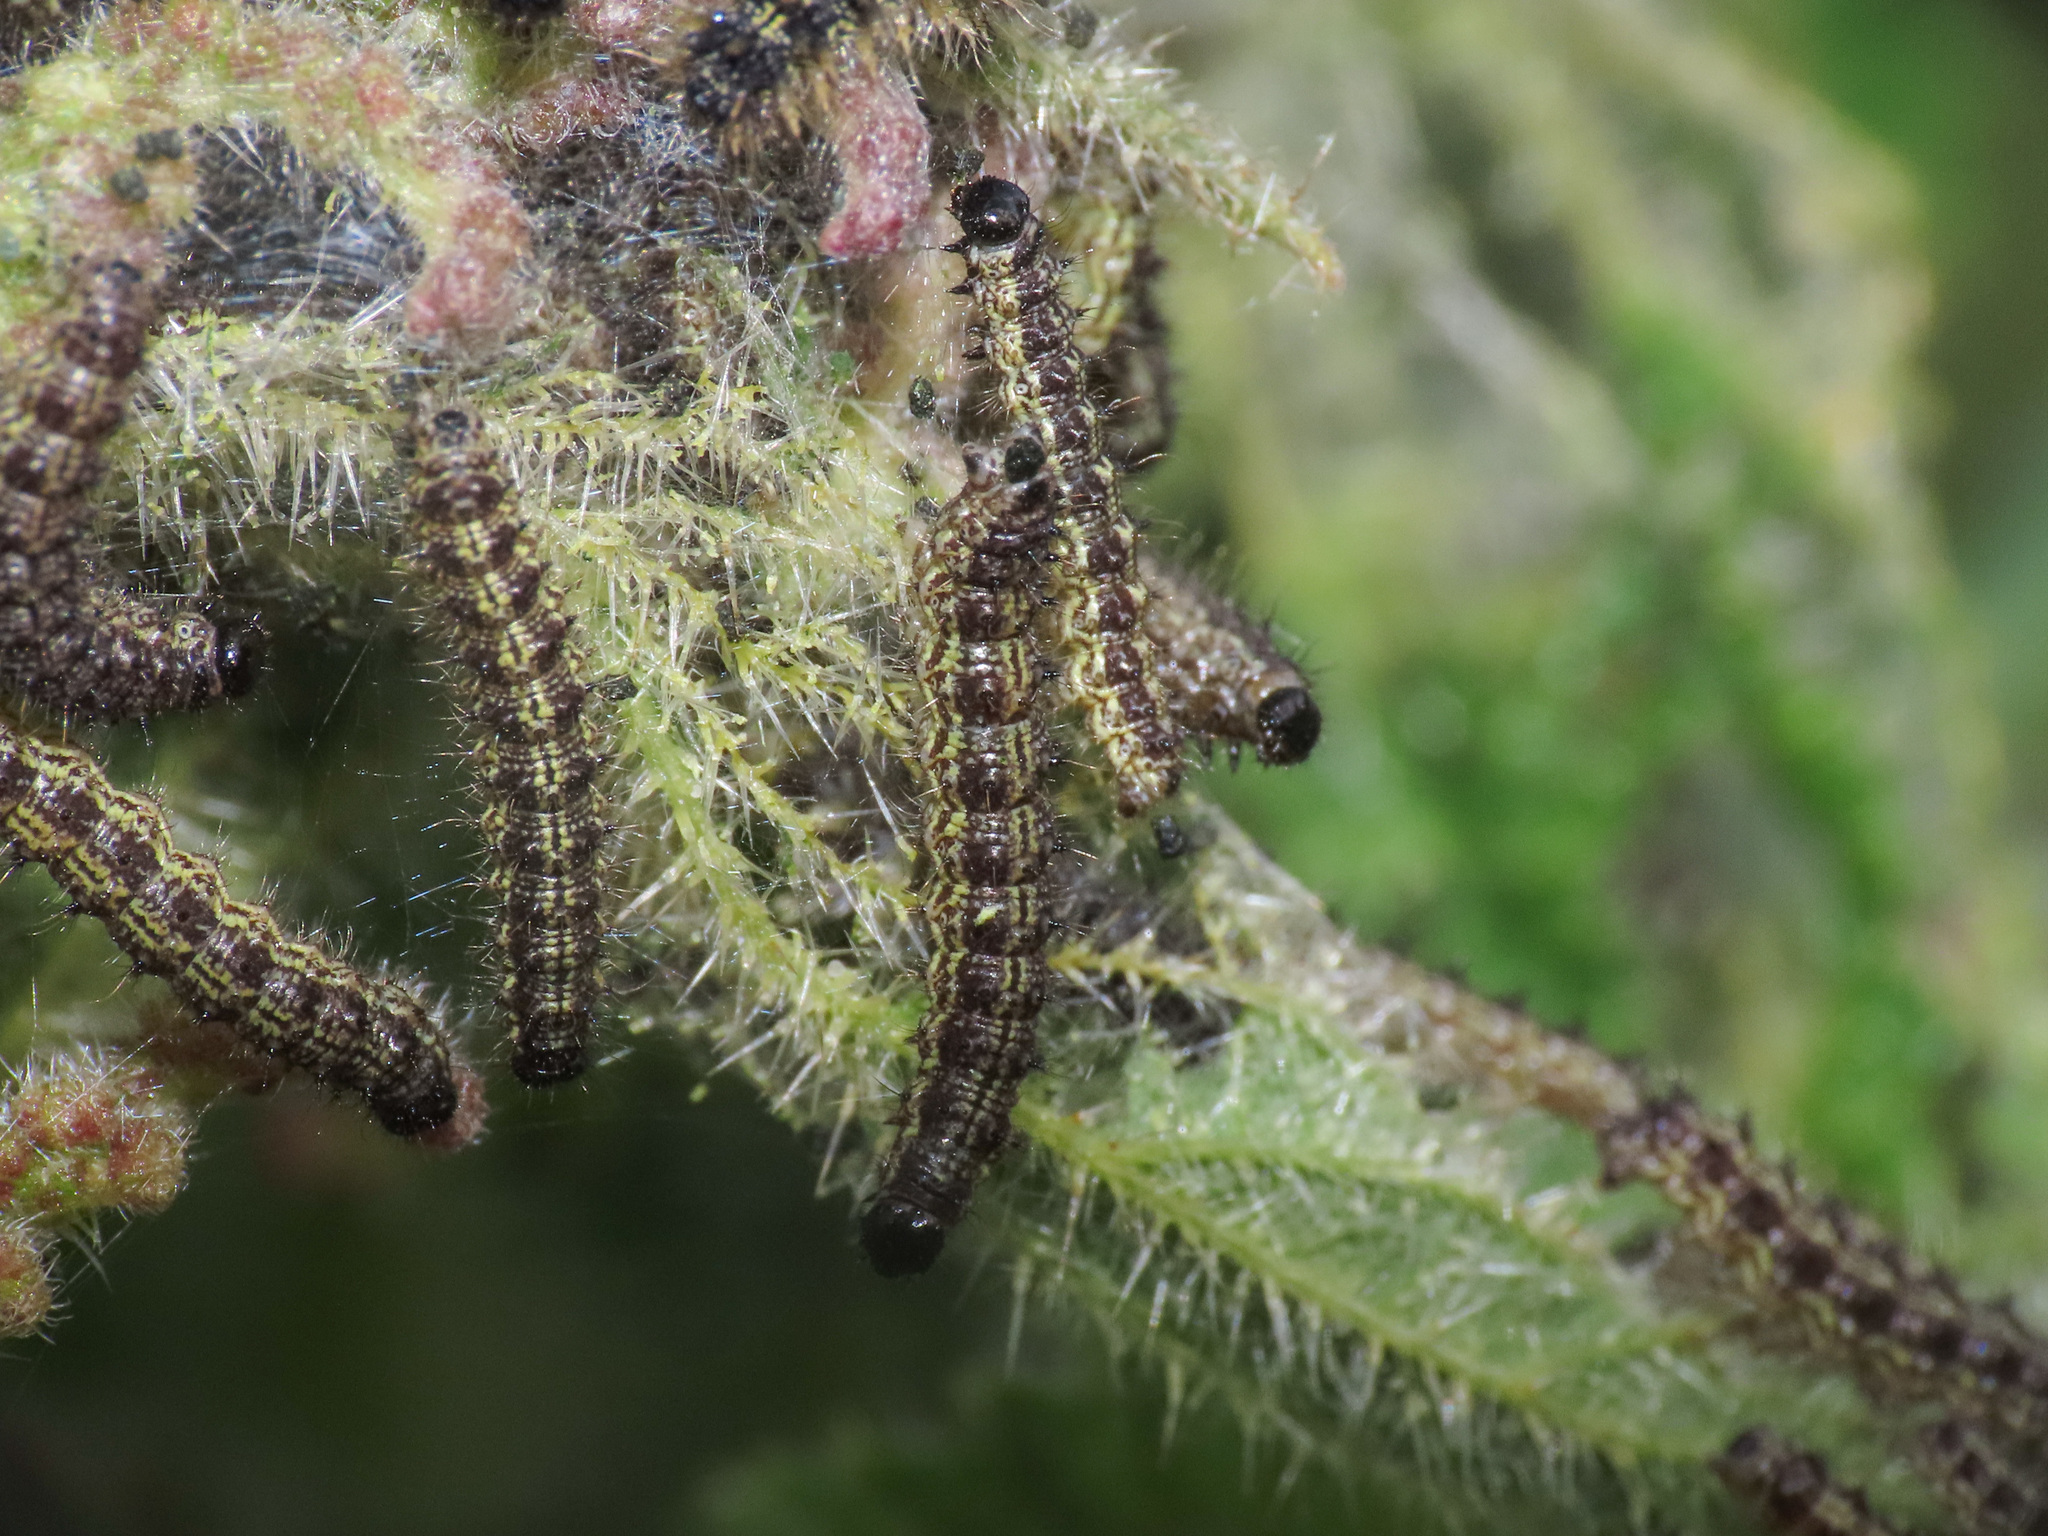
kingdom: Animalia
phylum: Arthropoda
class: Insecta
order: Lepidoptera
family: Nymphalidae
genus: Aglais
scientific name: Aglais urticae
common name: Small tortoiseshell
